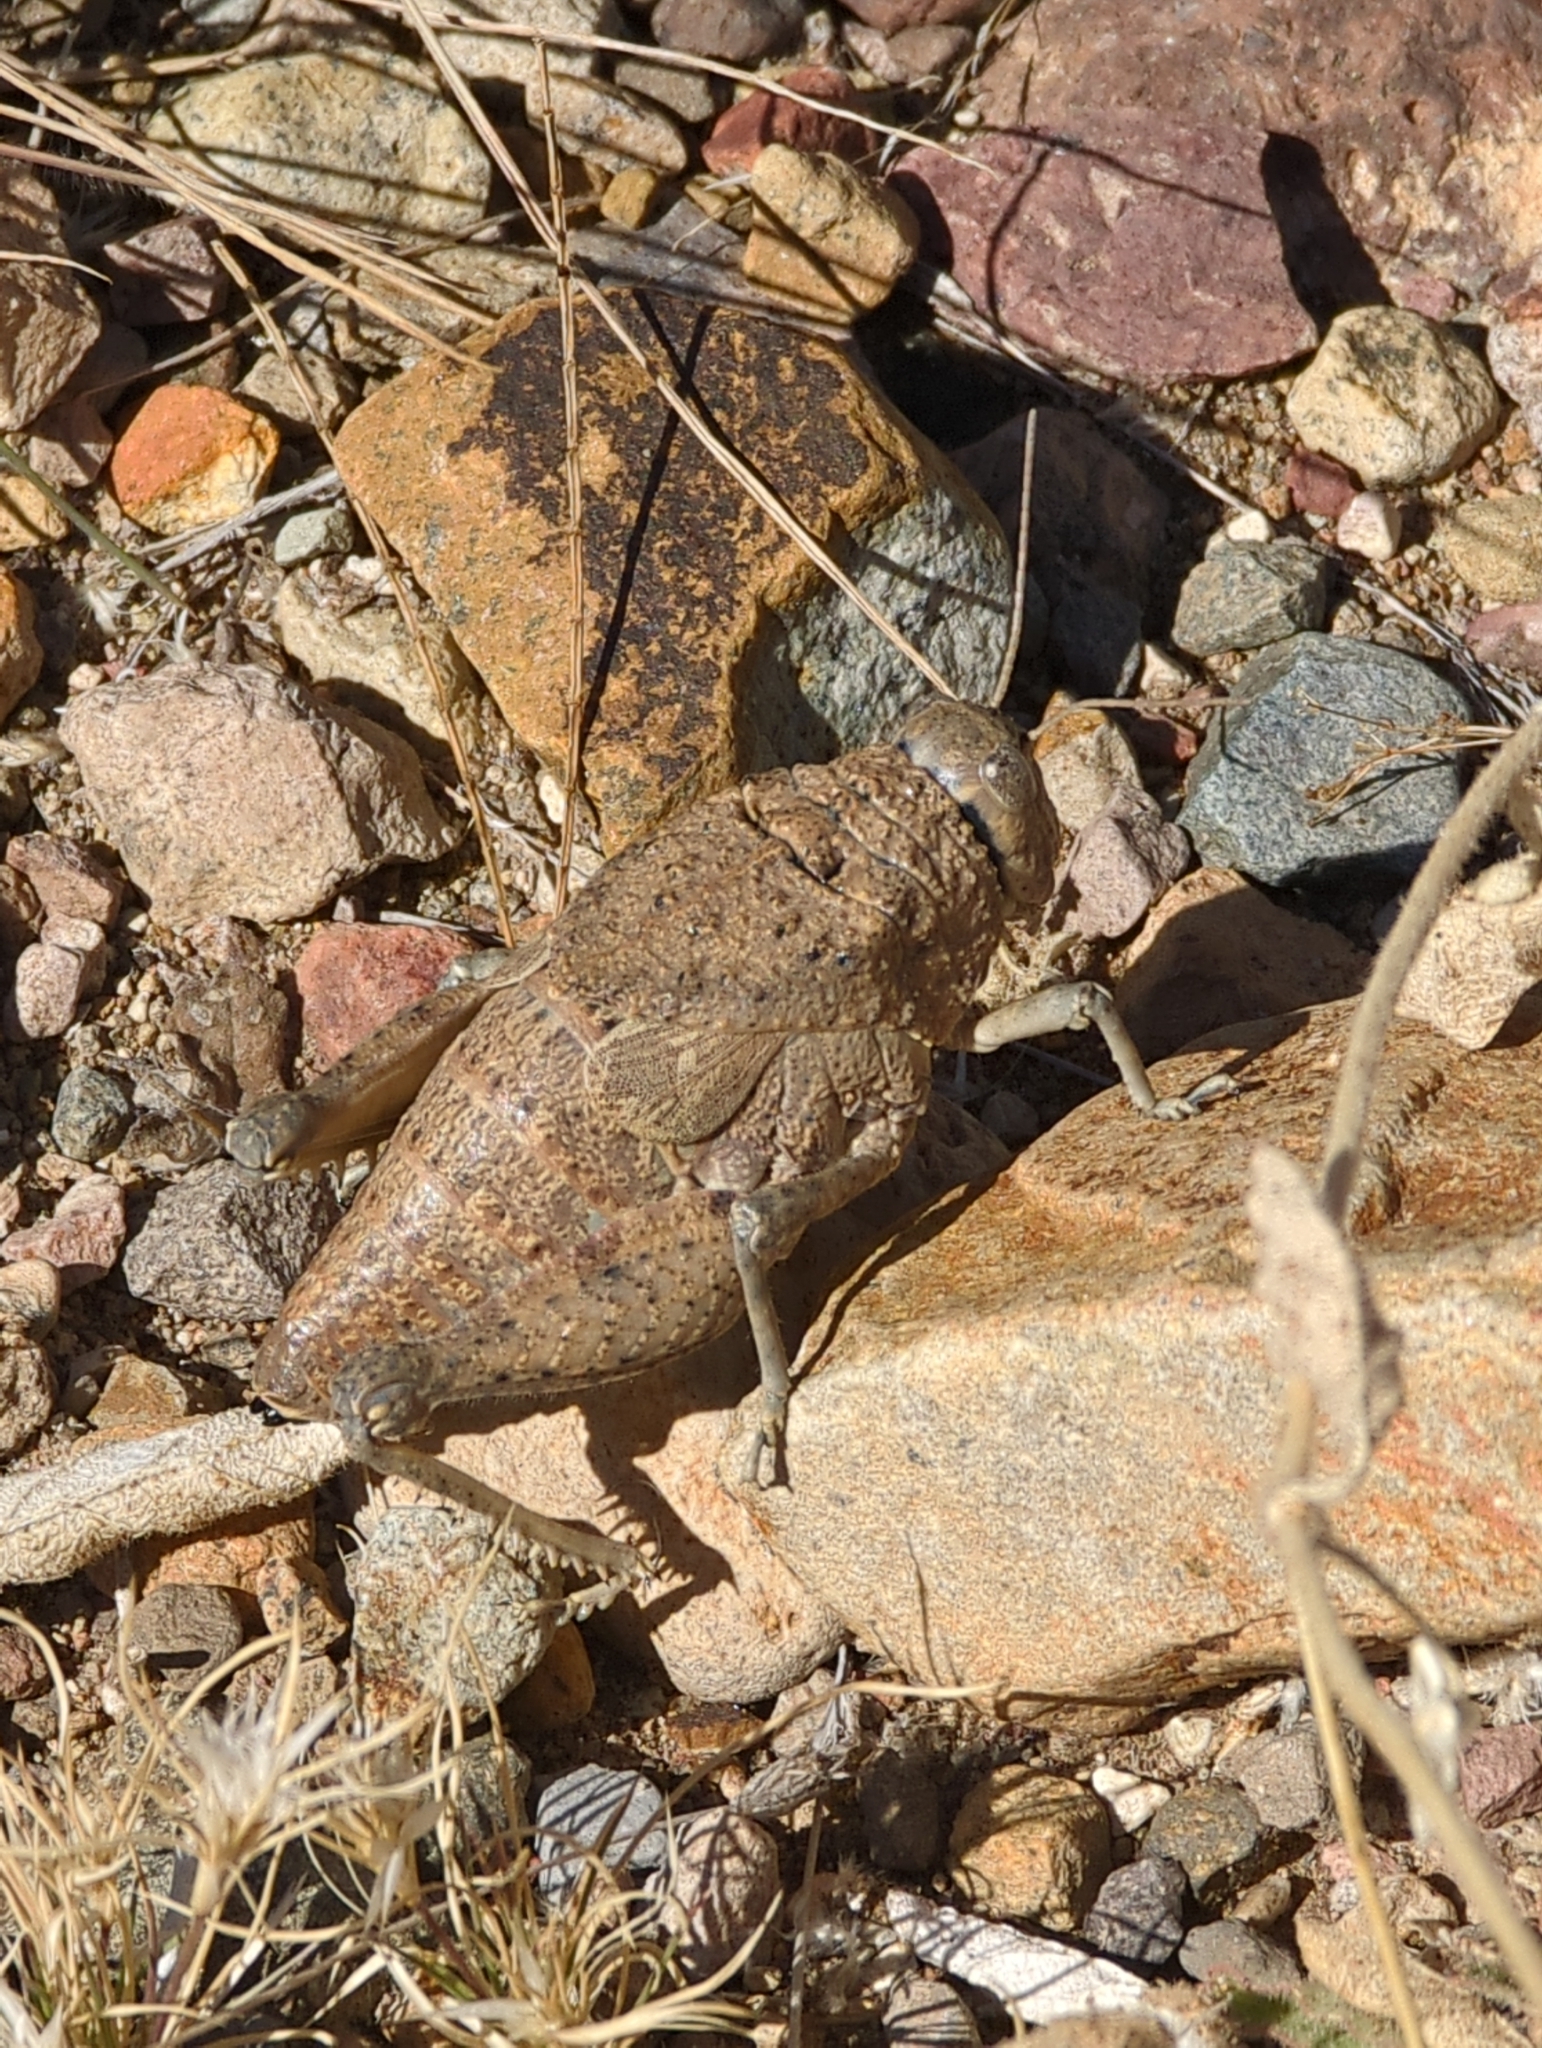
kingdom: Animalia
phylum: Arthropoda
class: Insecta
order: Orthoptera
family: Romaleidae
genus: Phrynotettix
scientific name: Phrynotettix robustus
